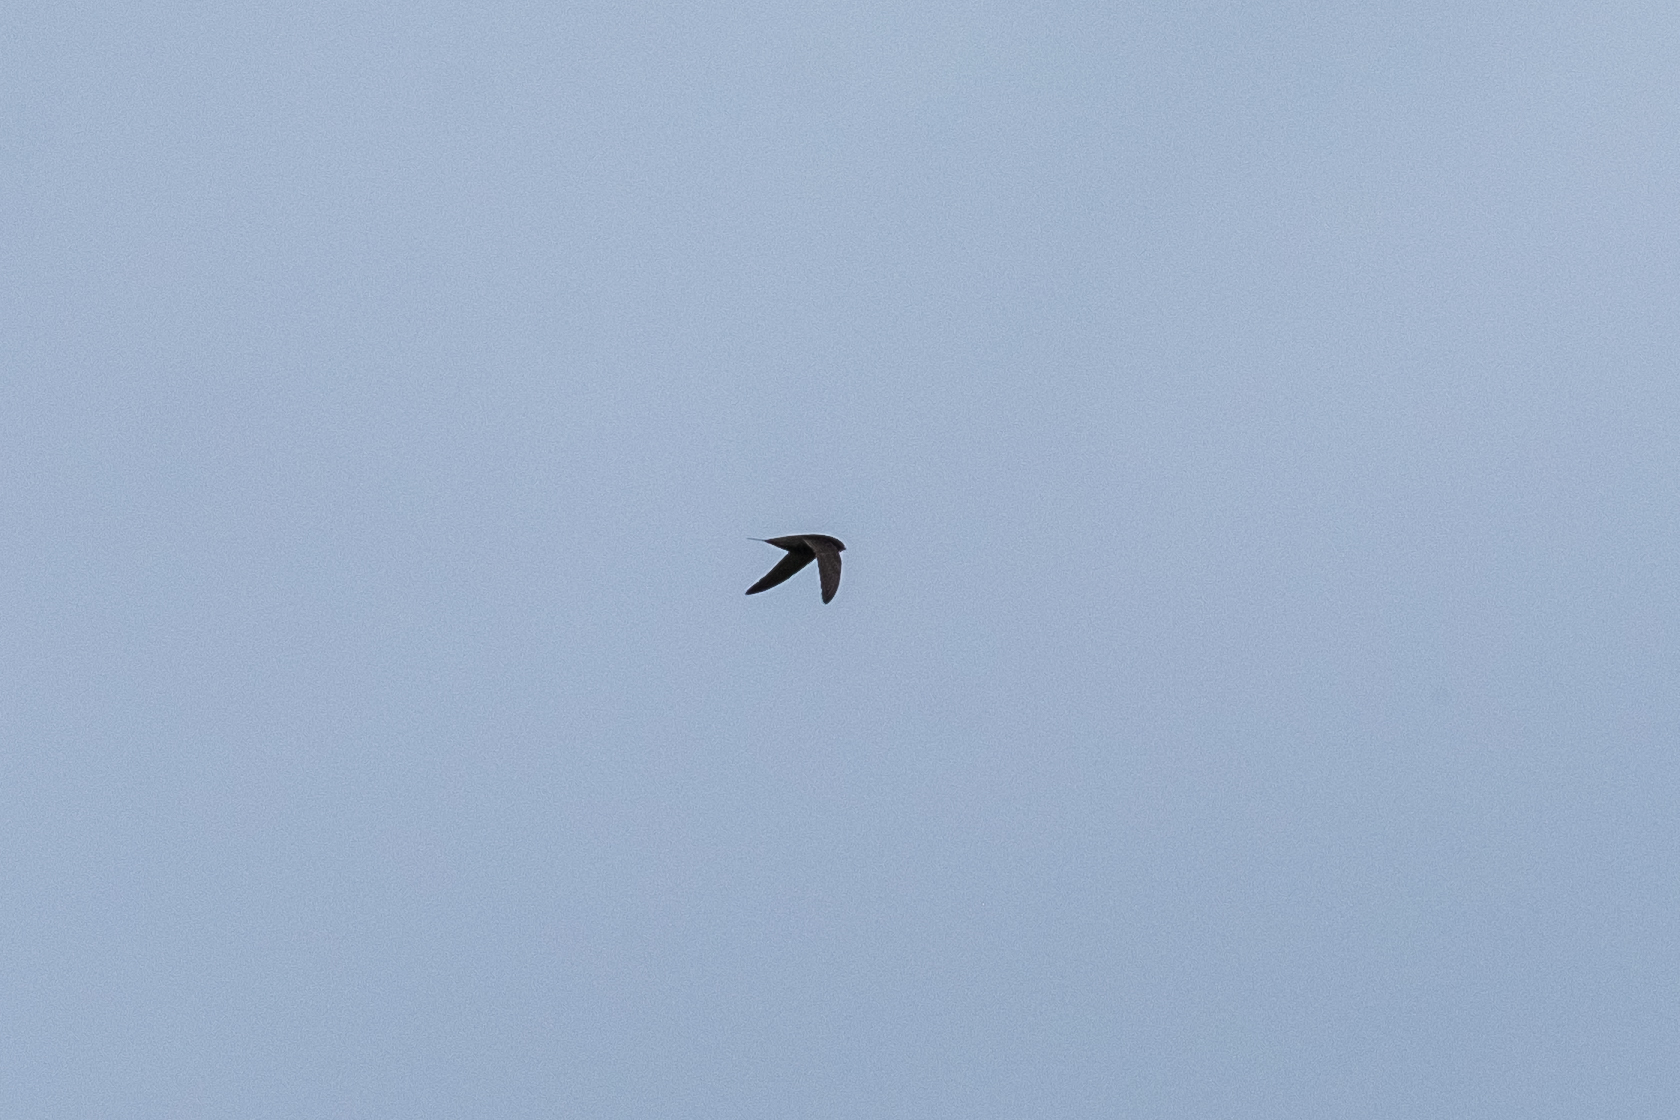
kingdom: Animalia
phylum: Chordata
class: Aves
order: Apodiformes
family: Apodidae
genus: Apus
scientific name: Apus apus
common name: Common swift
